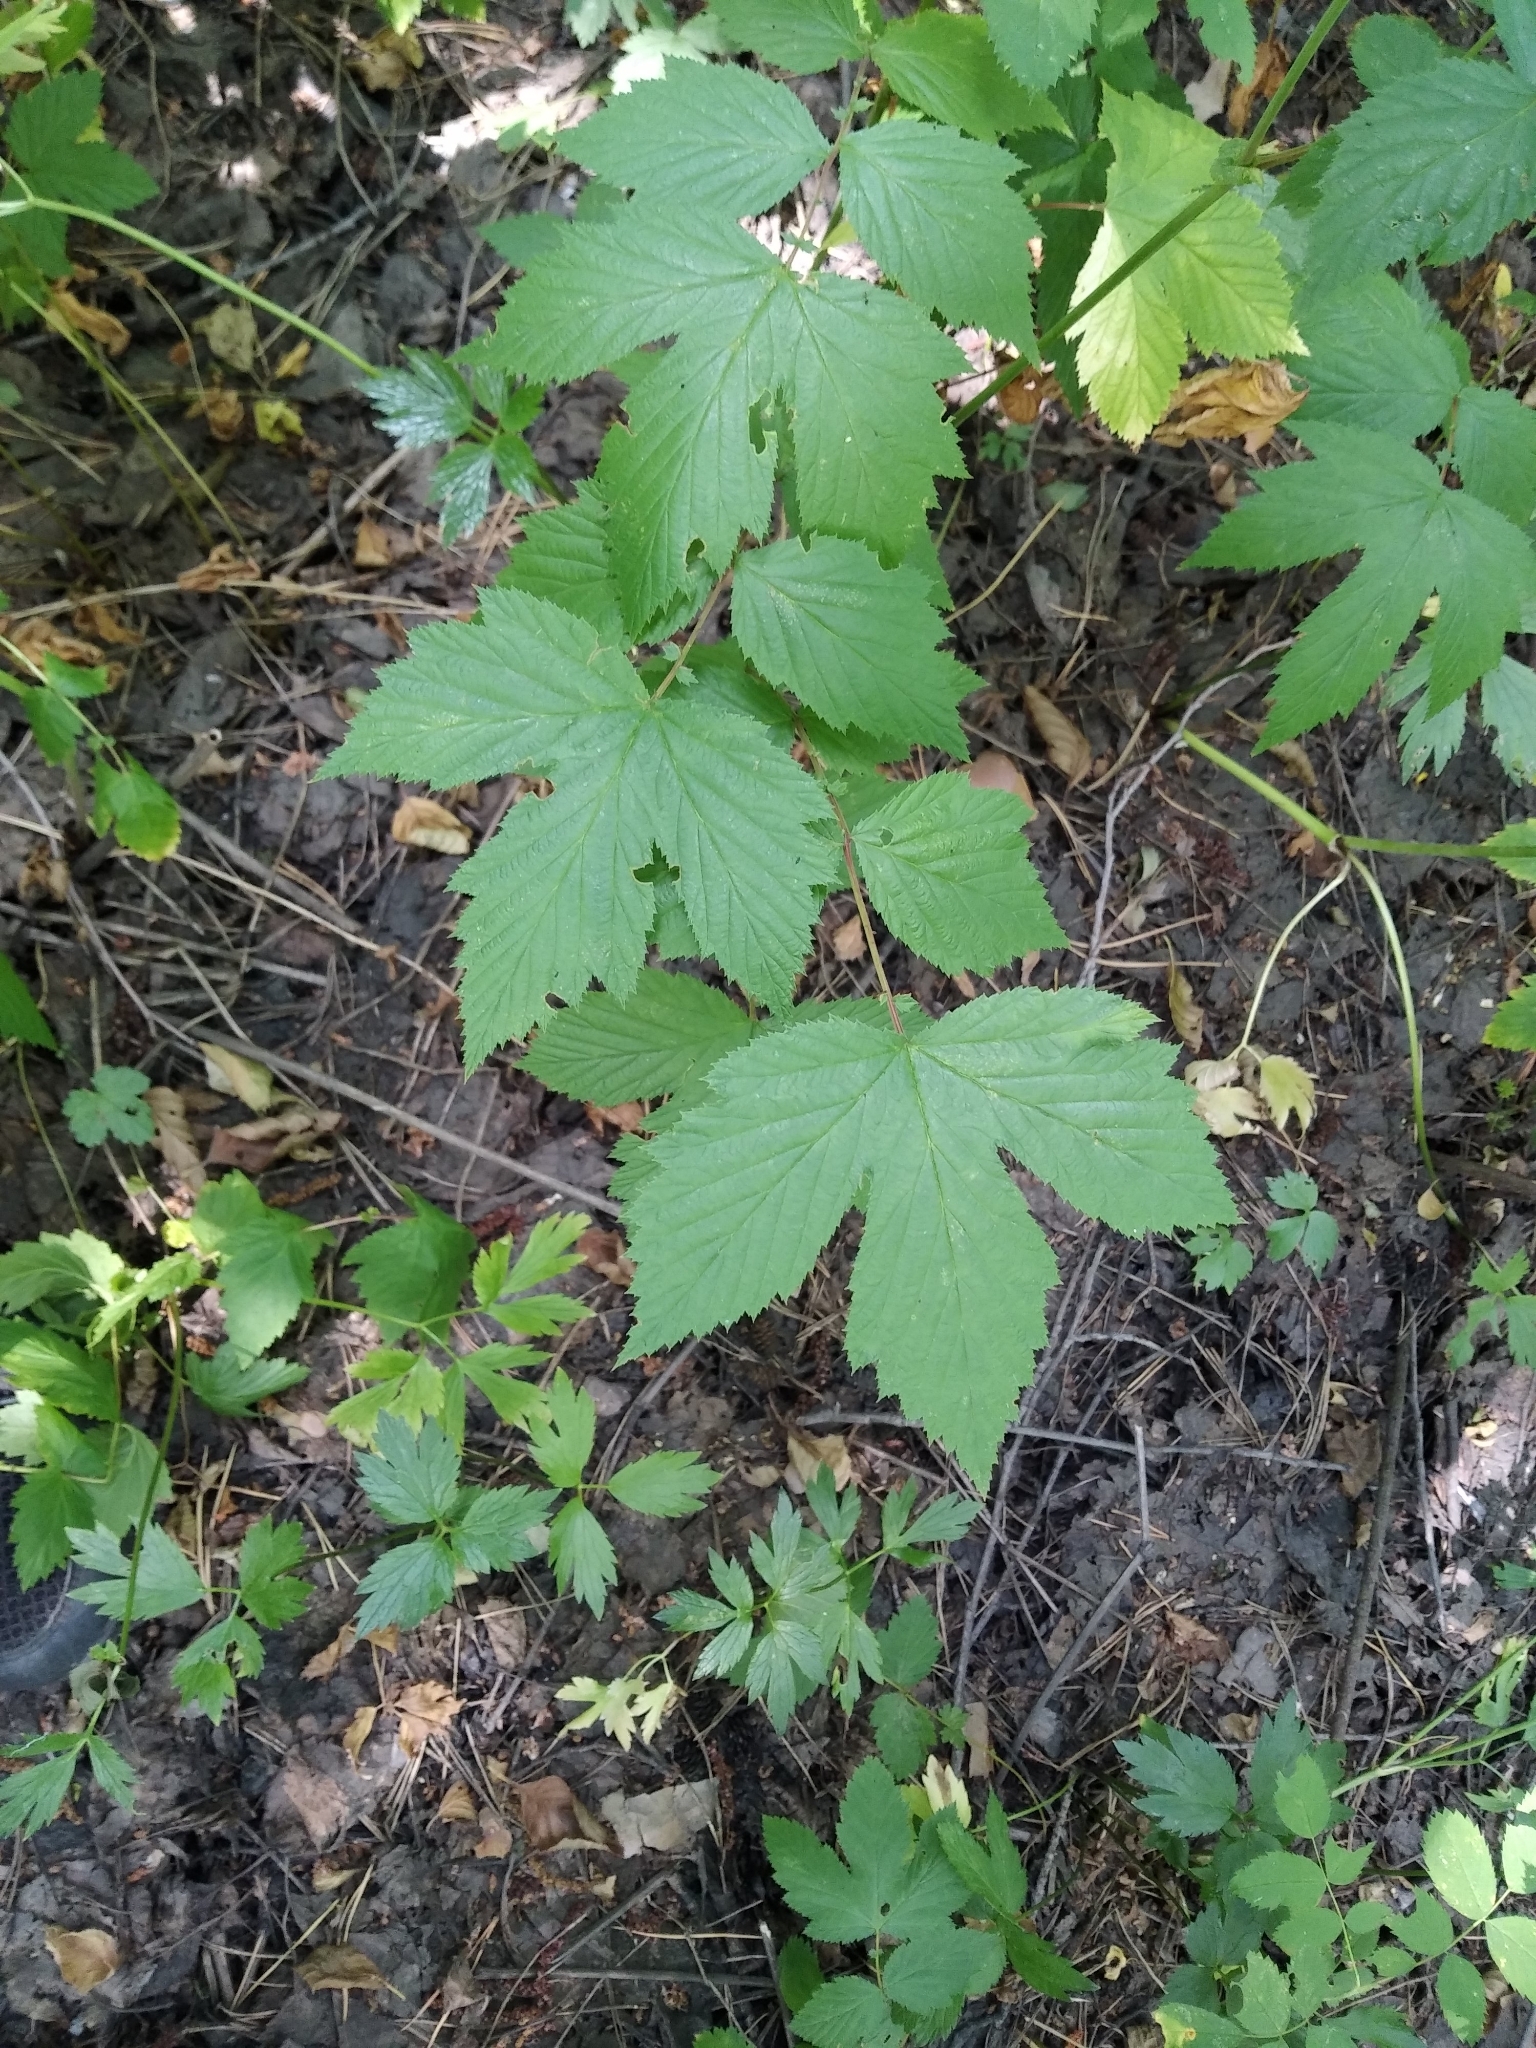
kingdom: Plantae
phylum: Tracheophyta
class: Magnoliopsida
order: Rosales
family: Rosaceae
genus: Filipendula
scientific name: Filipendula ulmaria
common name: Meadowsweet
